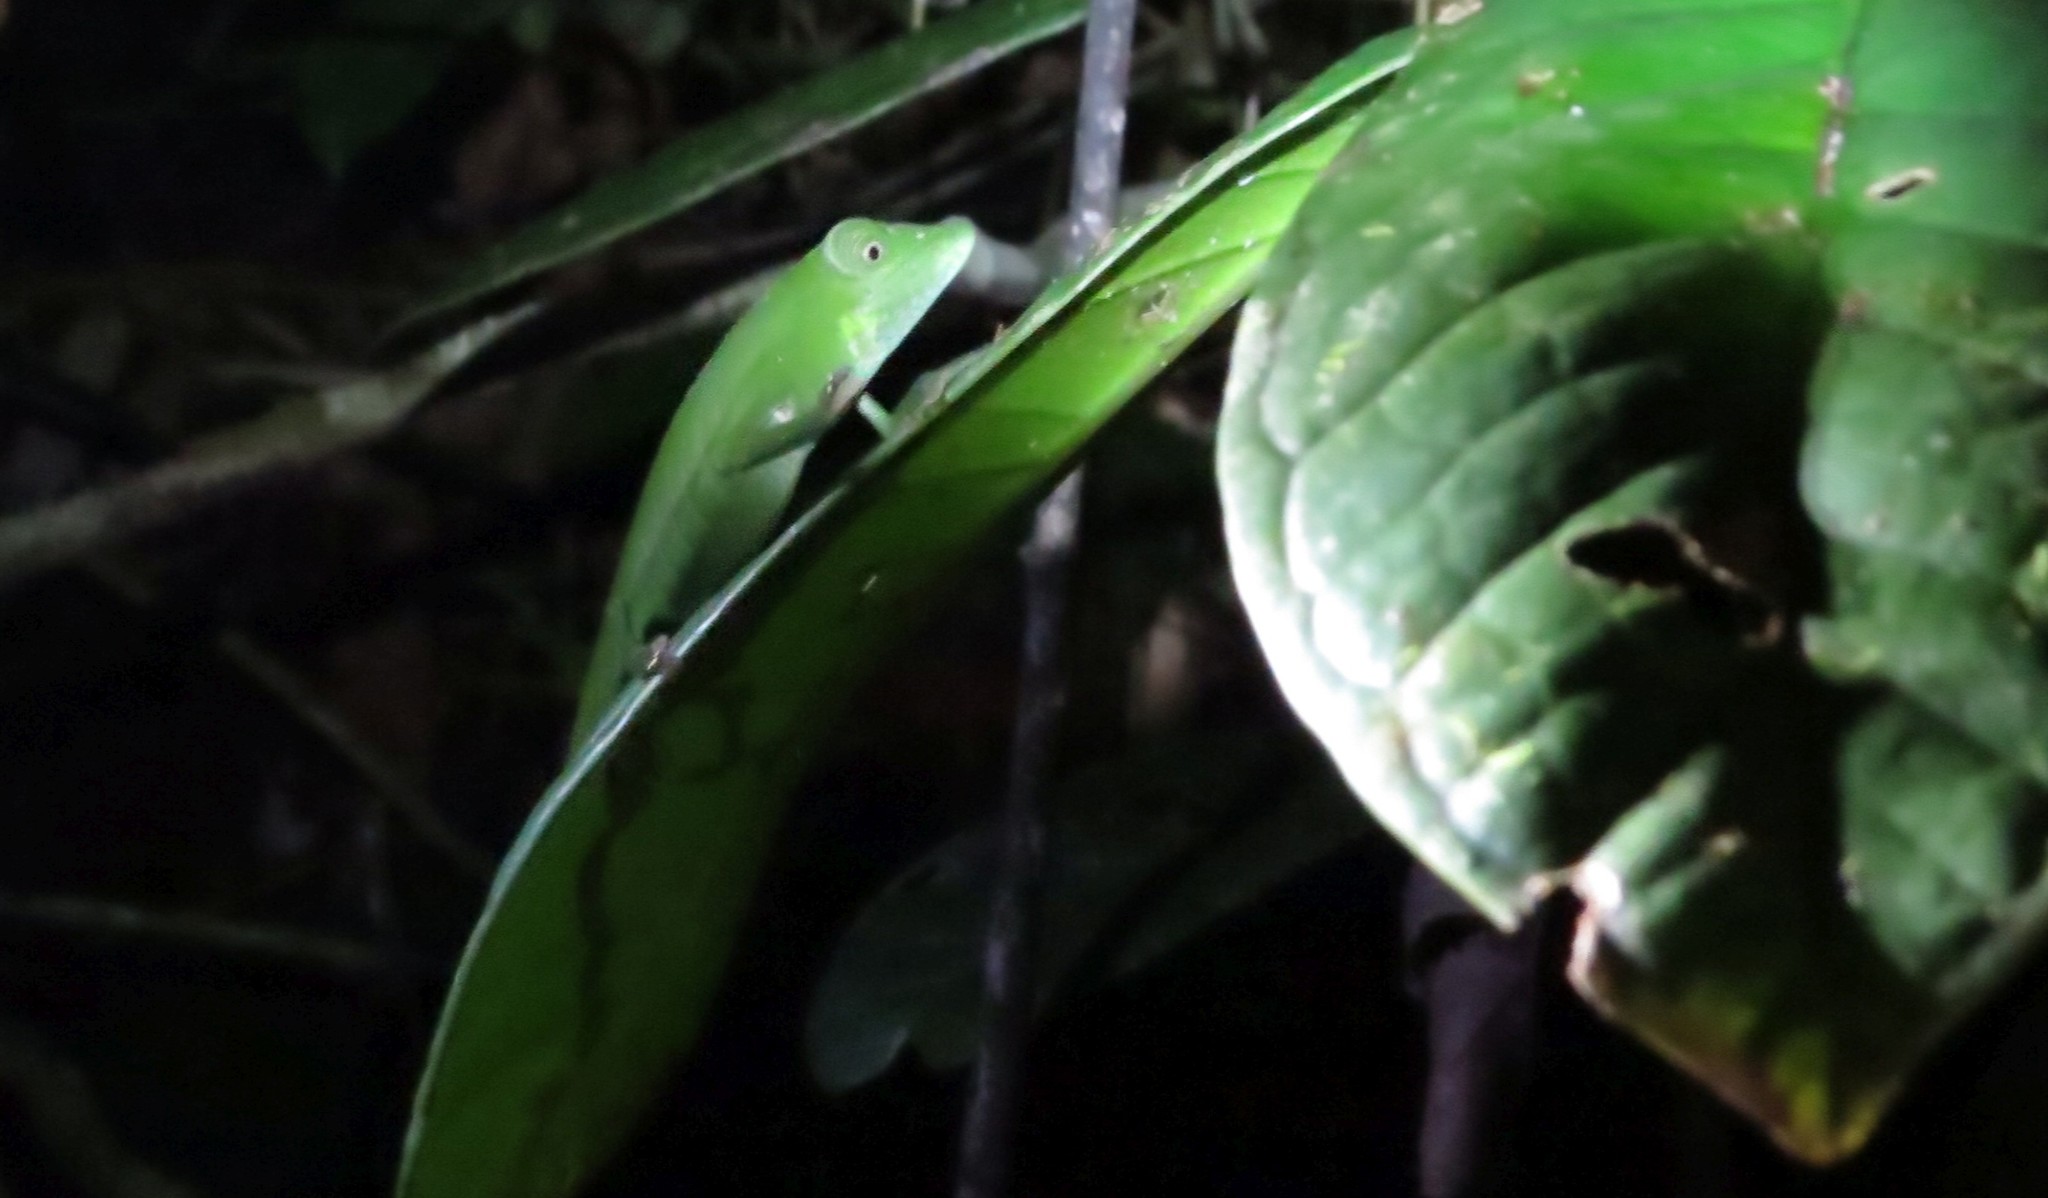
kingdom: Animalia
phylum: Chordata
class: Squamata
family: Chamaeleonidae
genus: Calumma
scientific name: Calumma marojezense
